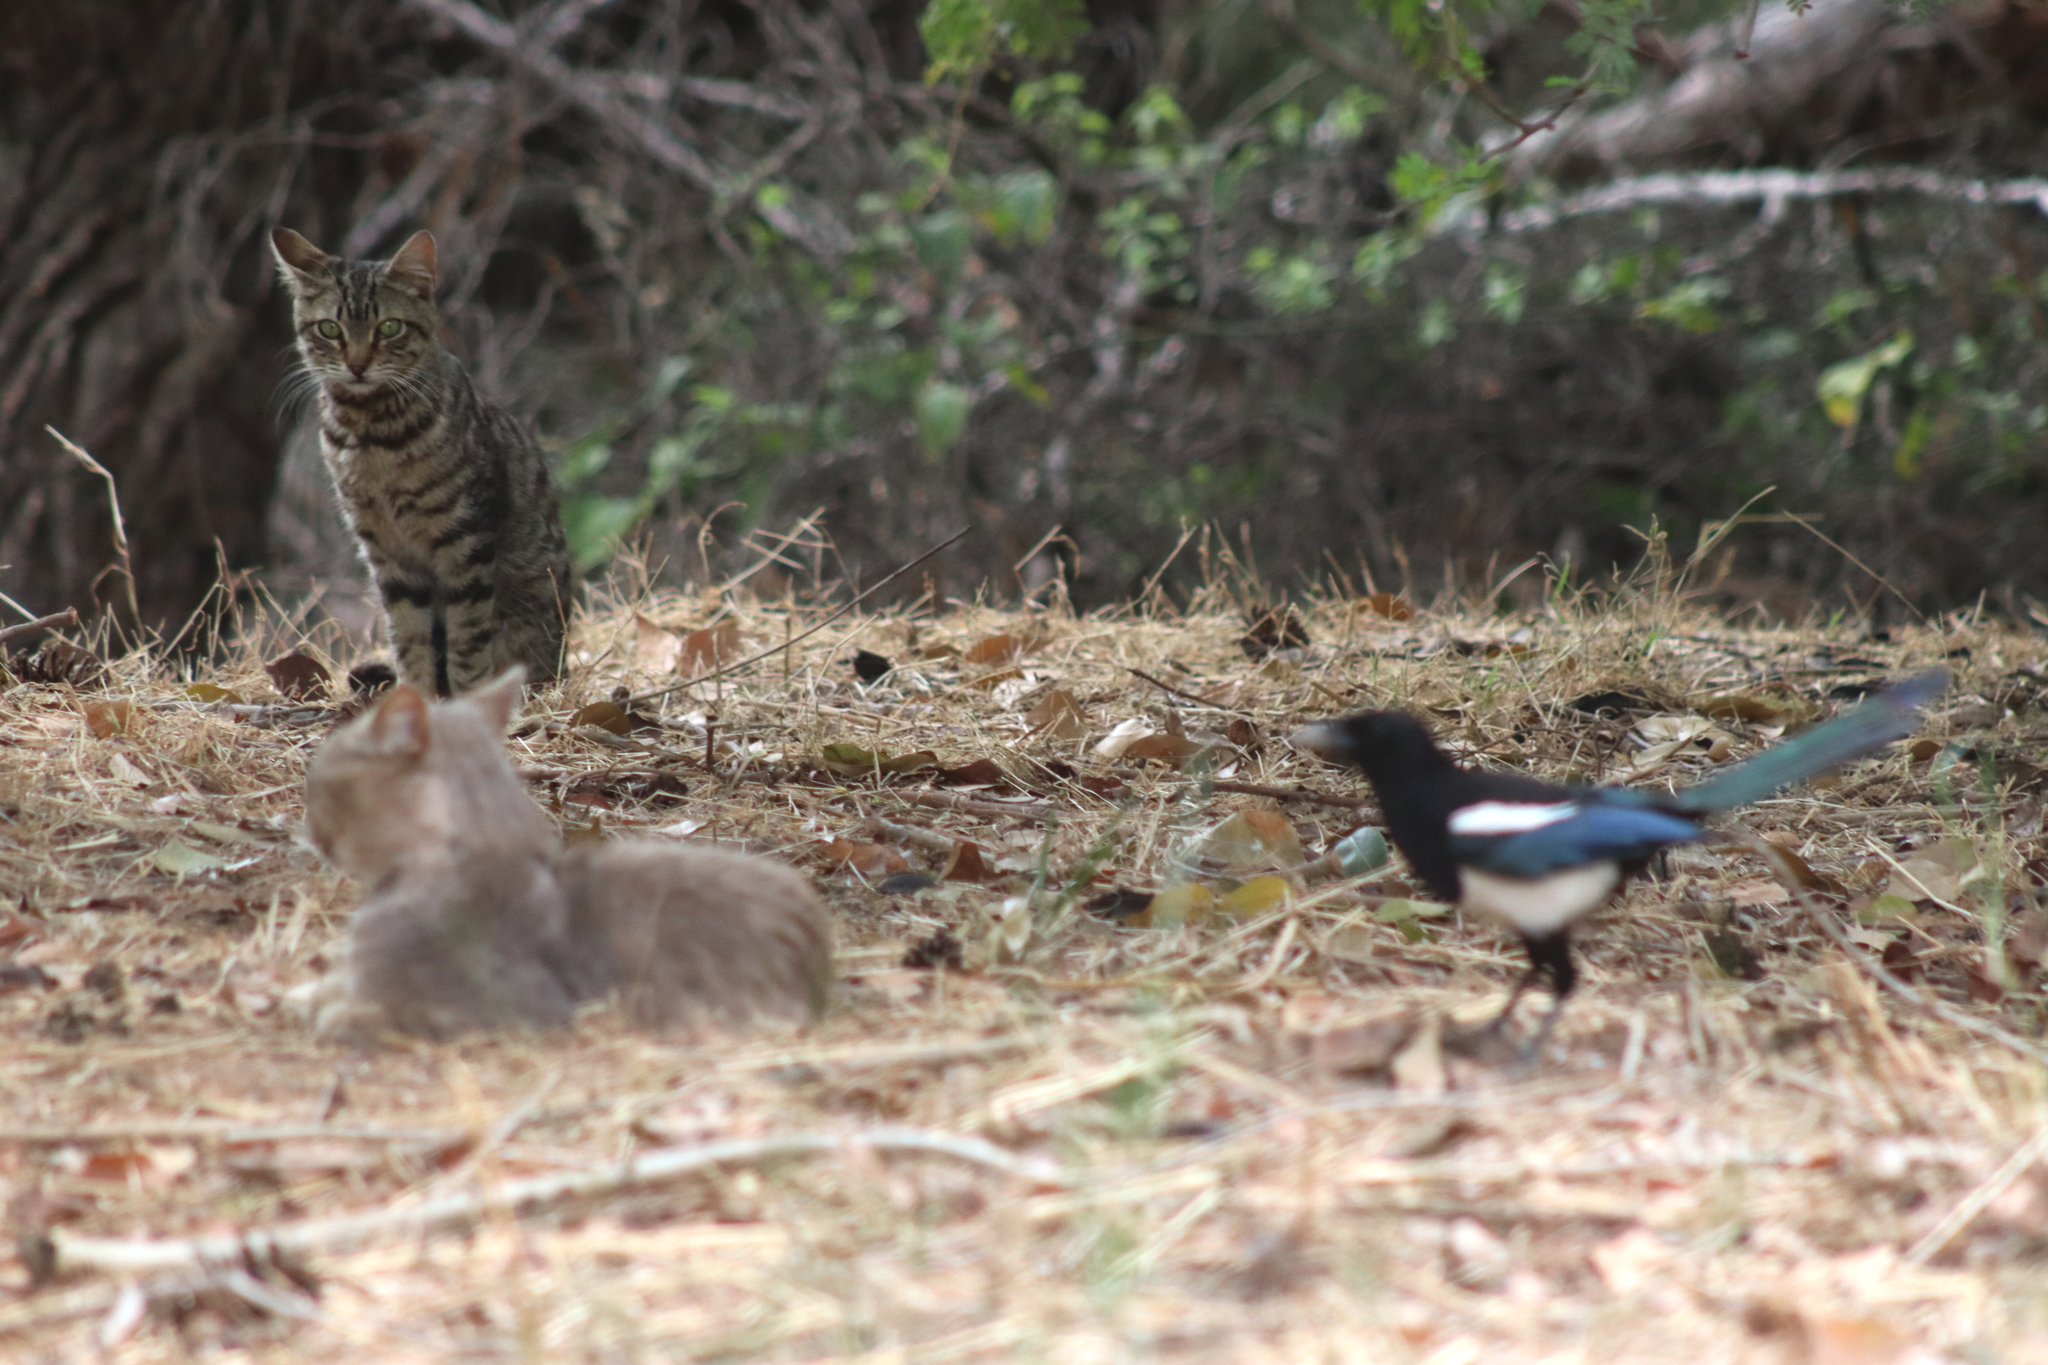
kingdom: Animalia
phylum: Chordata
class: Aves
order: Passeriformes
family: Corvidae
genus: Pica
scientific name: Pica pica
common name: Eurasian magpie
